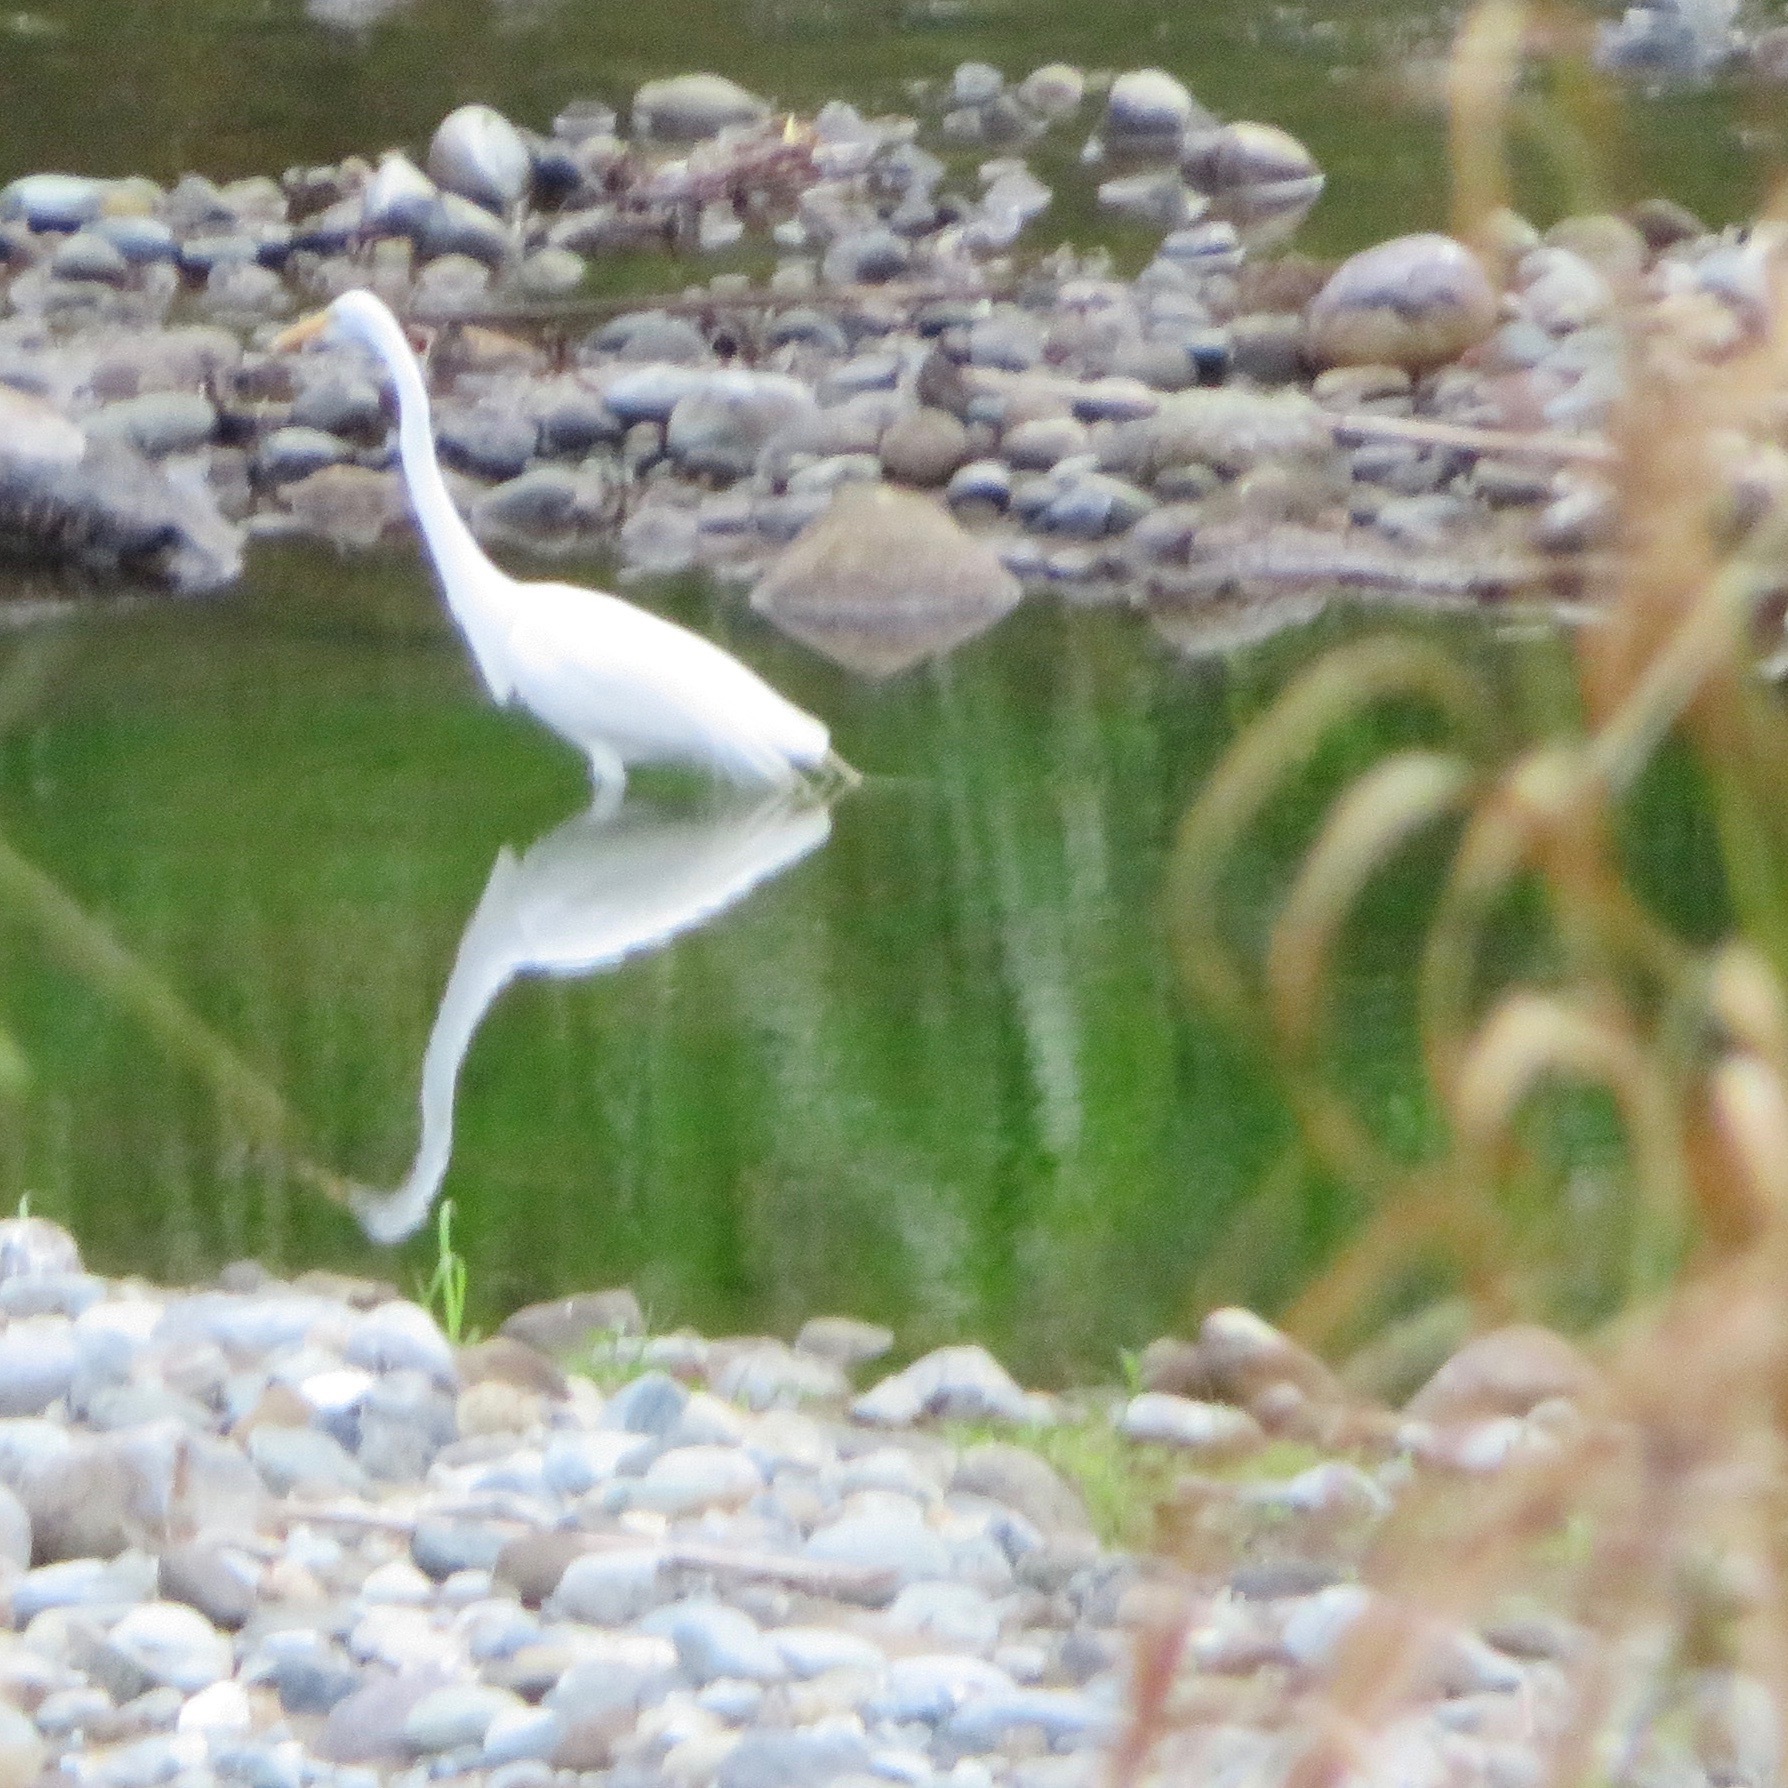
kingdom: Animalia
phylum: Chordata
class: Aves
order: Pelecaniformes
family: Ardeidae
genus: Ardea
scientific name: Ardea alba
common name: Great egret
